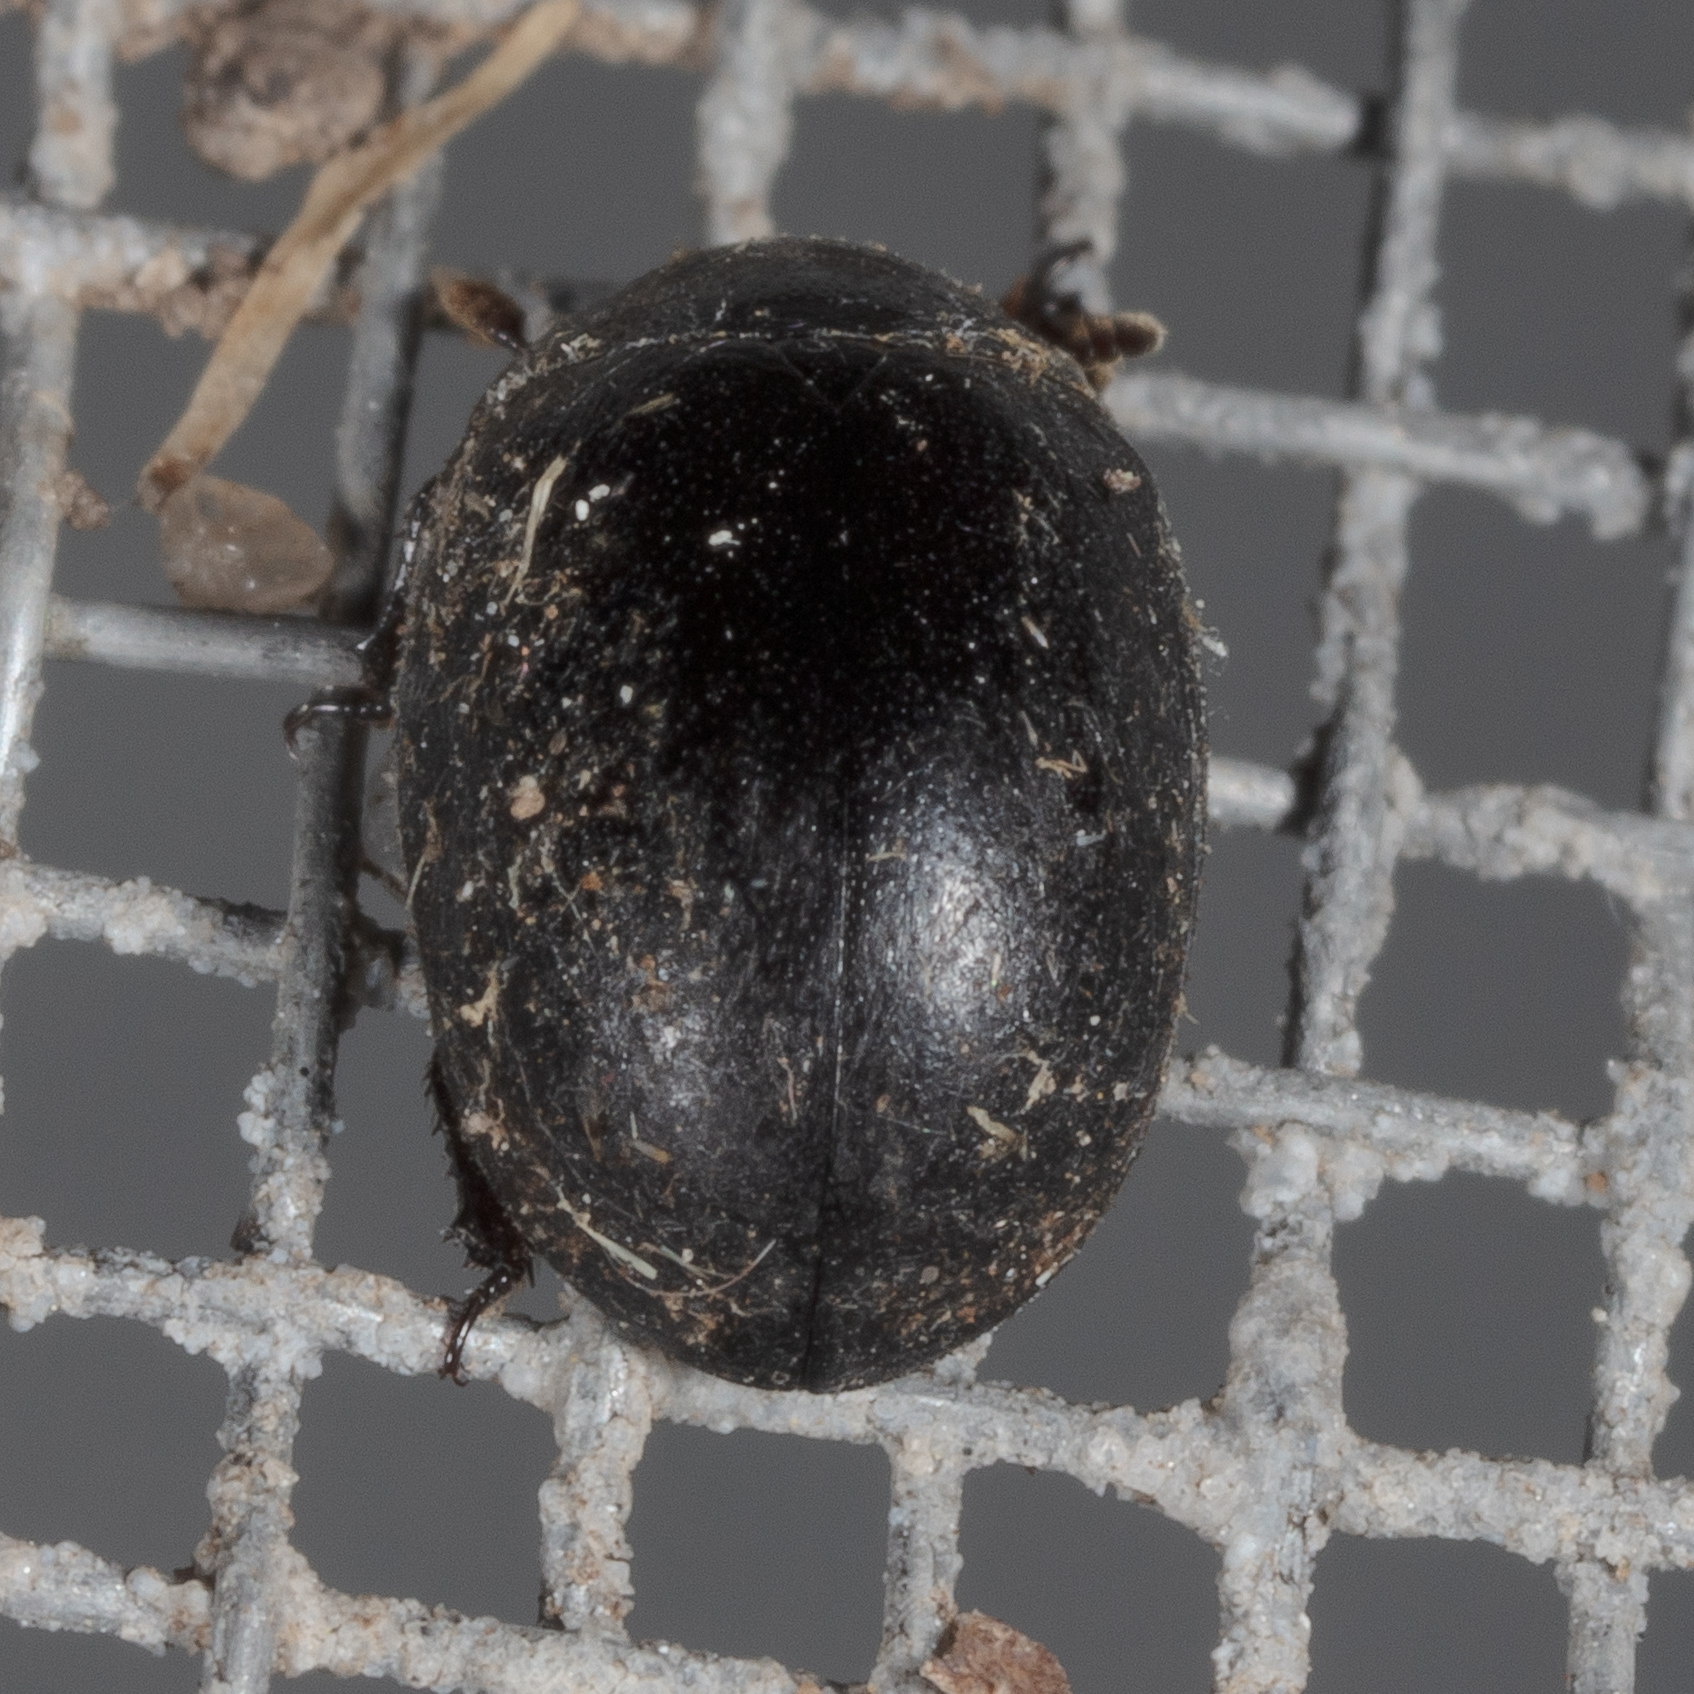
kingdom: Animalia
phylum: Arthropoda
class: Insecta
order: Coleoptera
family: Nosodendridae
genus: Nosodendron
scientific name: Nosodendron unicolor
